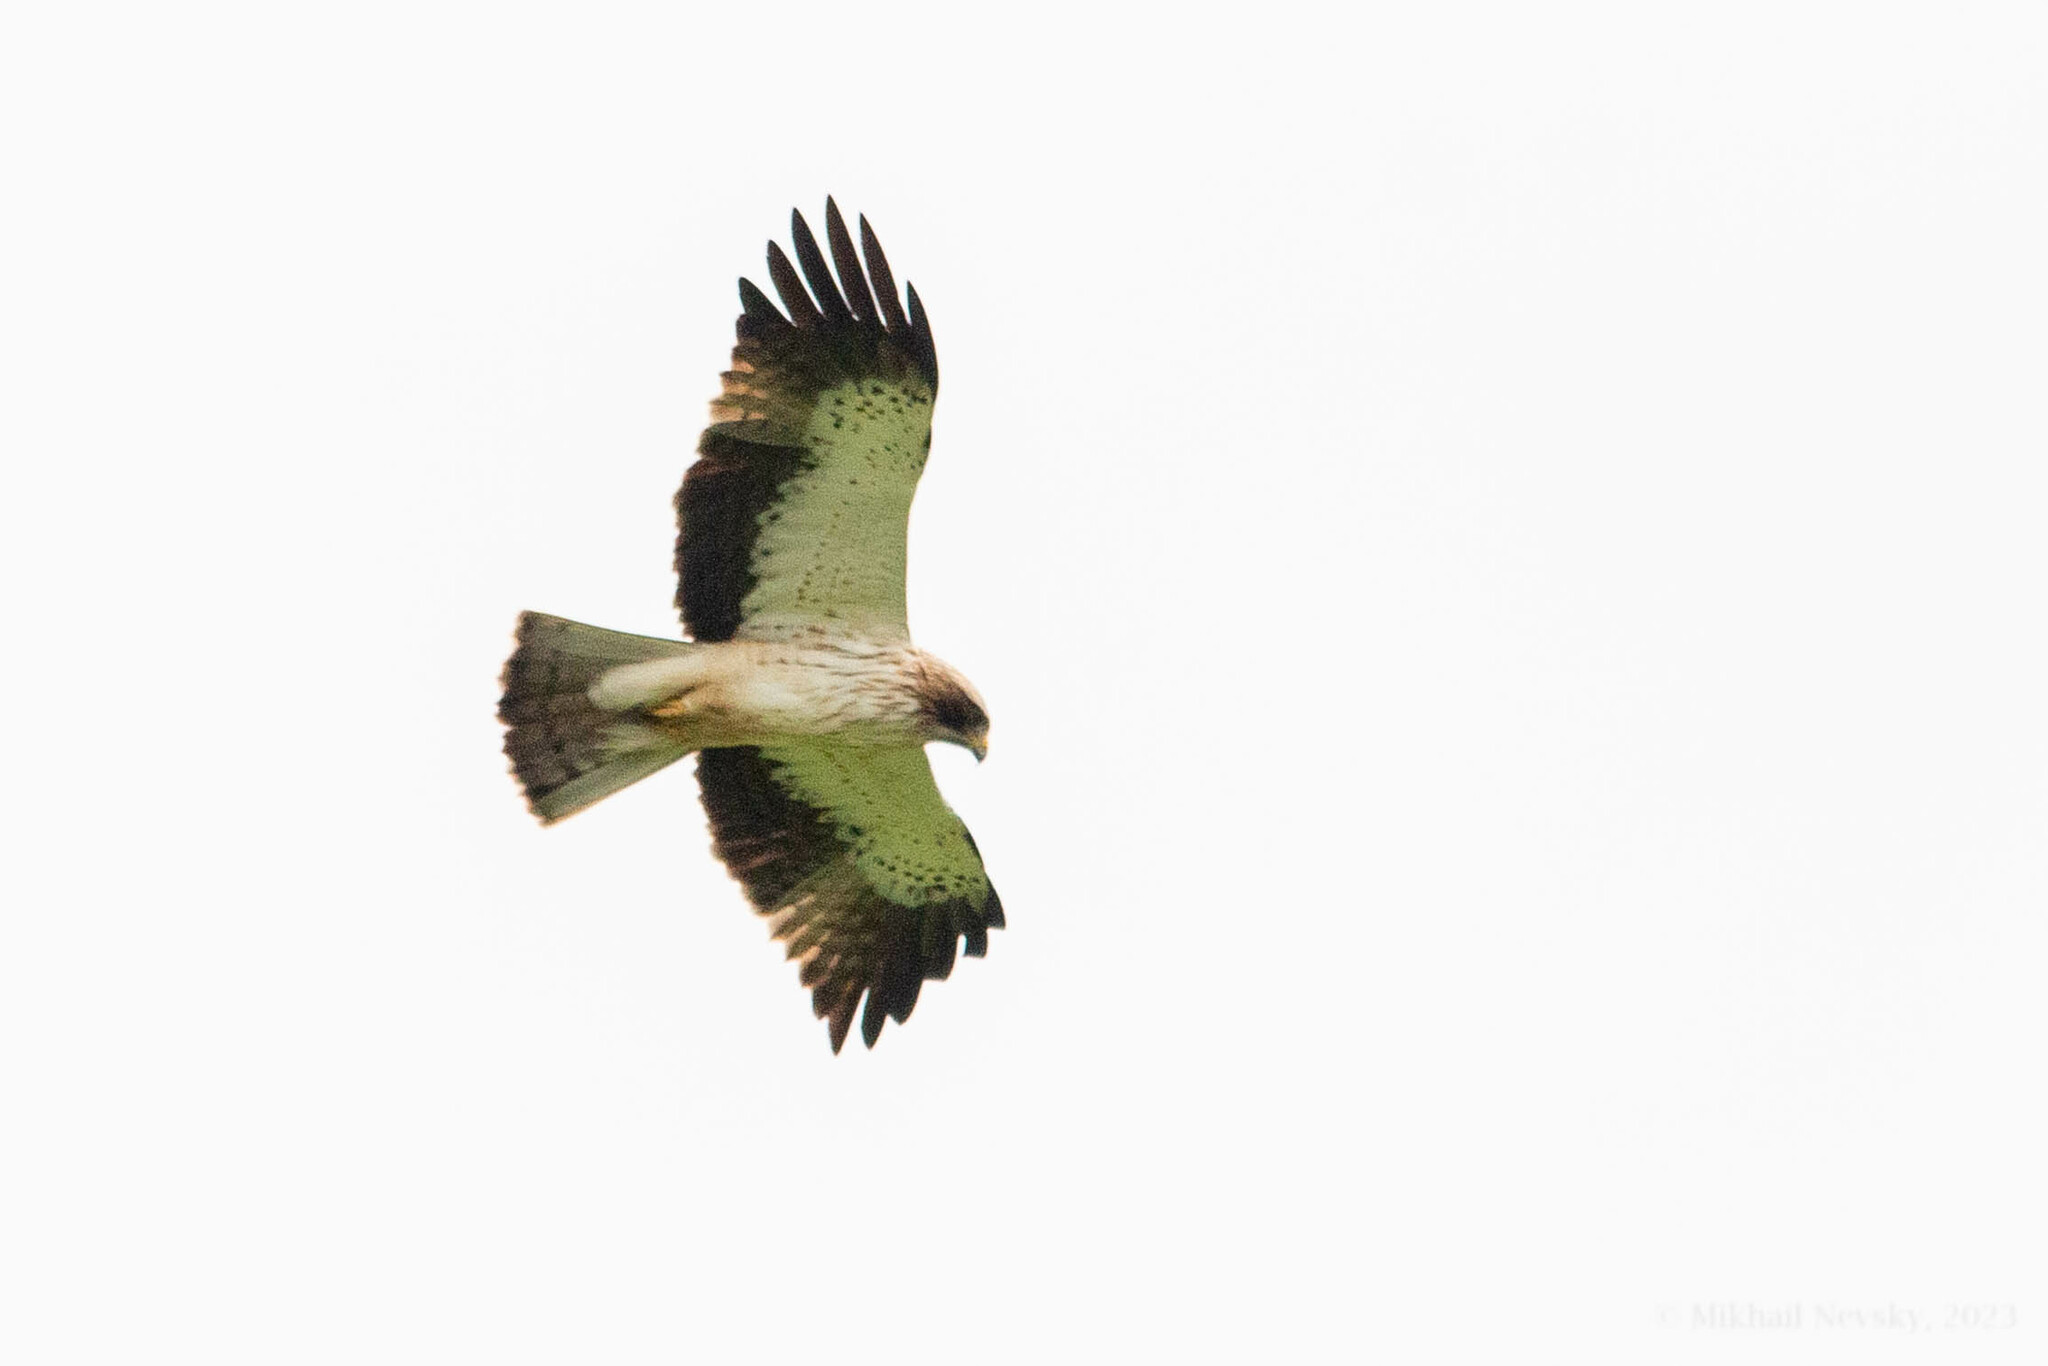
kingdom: Animalia
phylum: Chordata
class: Aves
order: Accipitriformes
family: Accipitridae
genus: Hieraaetus
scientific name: Hieraaetus pennatus
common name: Booted eagle
